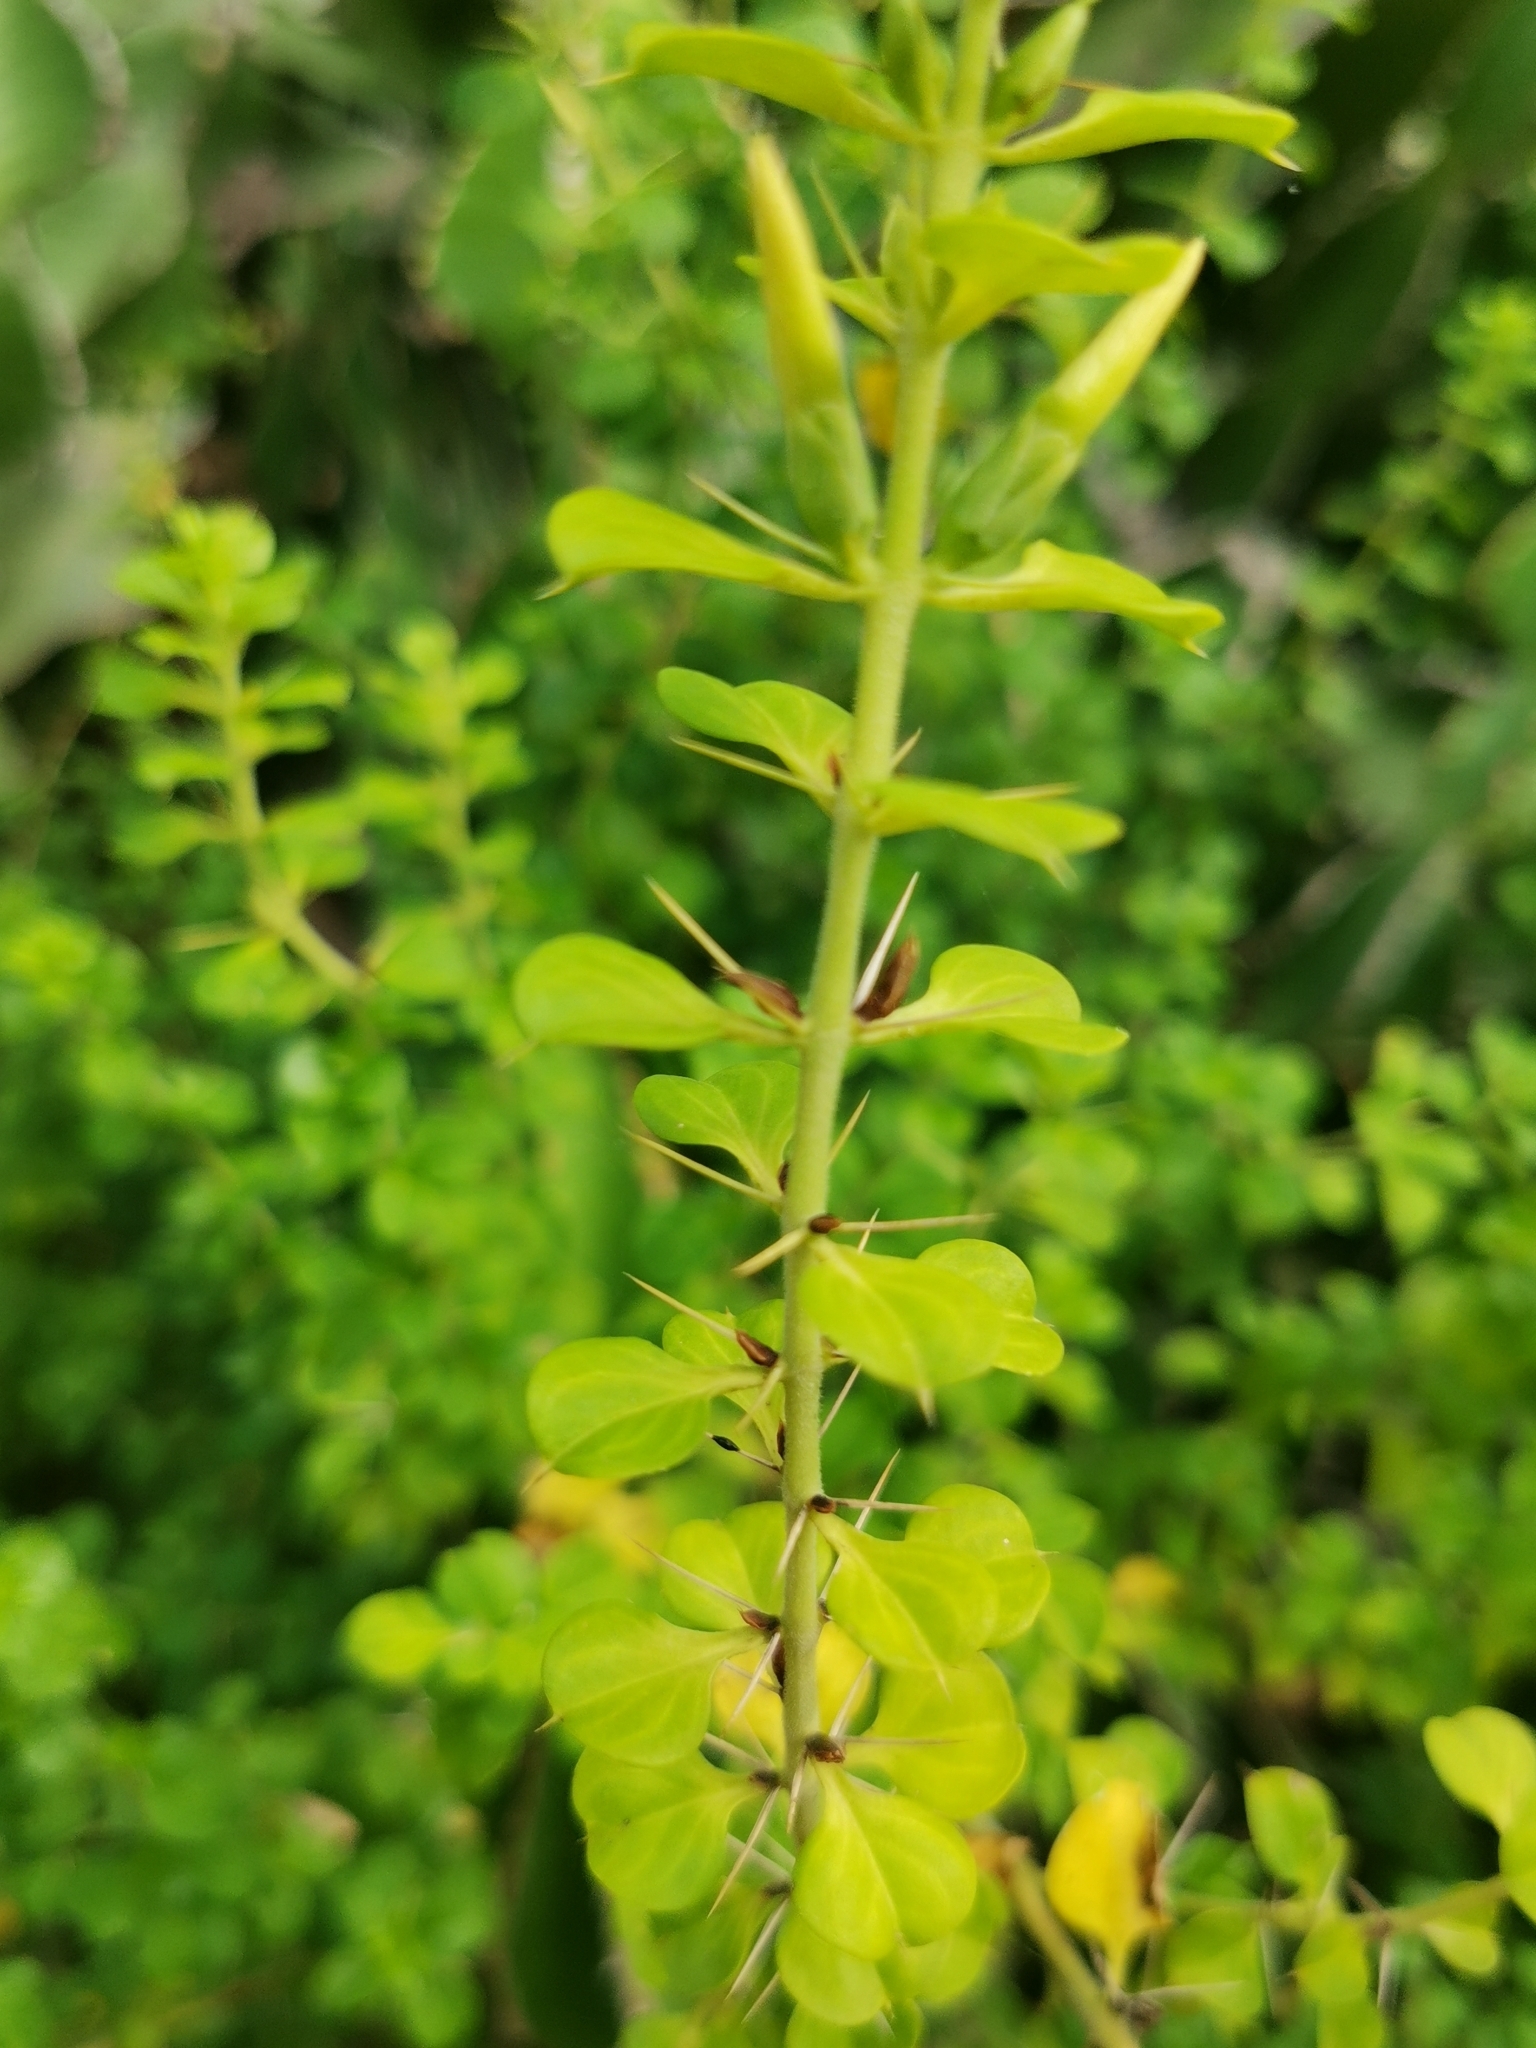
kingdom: Plantae
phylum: Tracheophyta
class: Magnoliopsida
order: Lamiales
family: Acanthaceae
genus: Barleria
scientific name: Barleria rotundifolia
